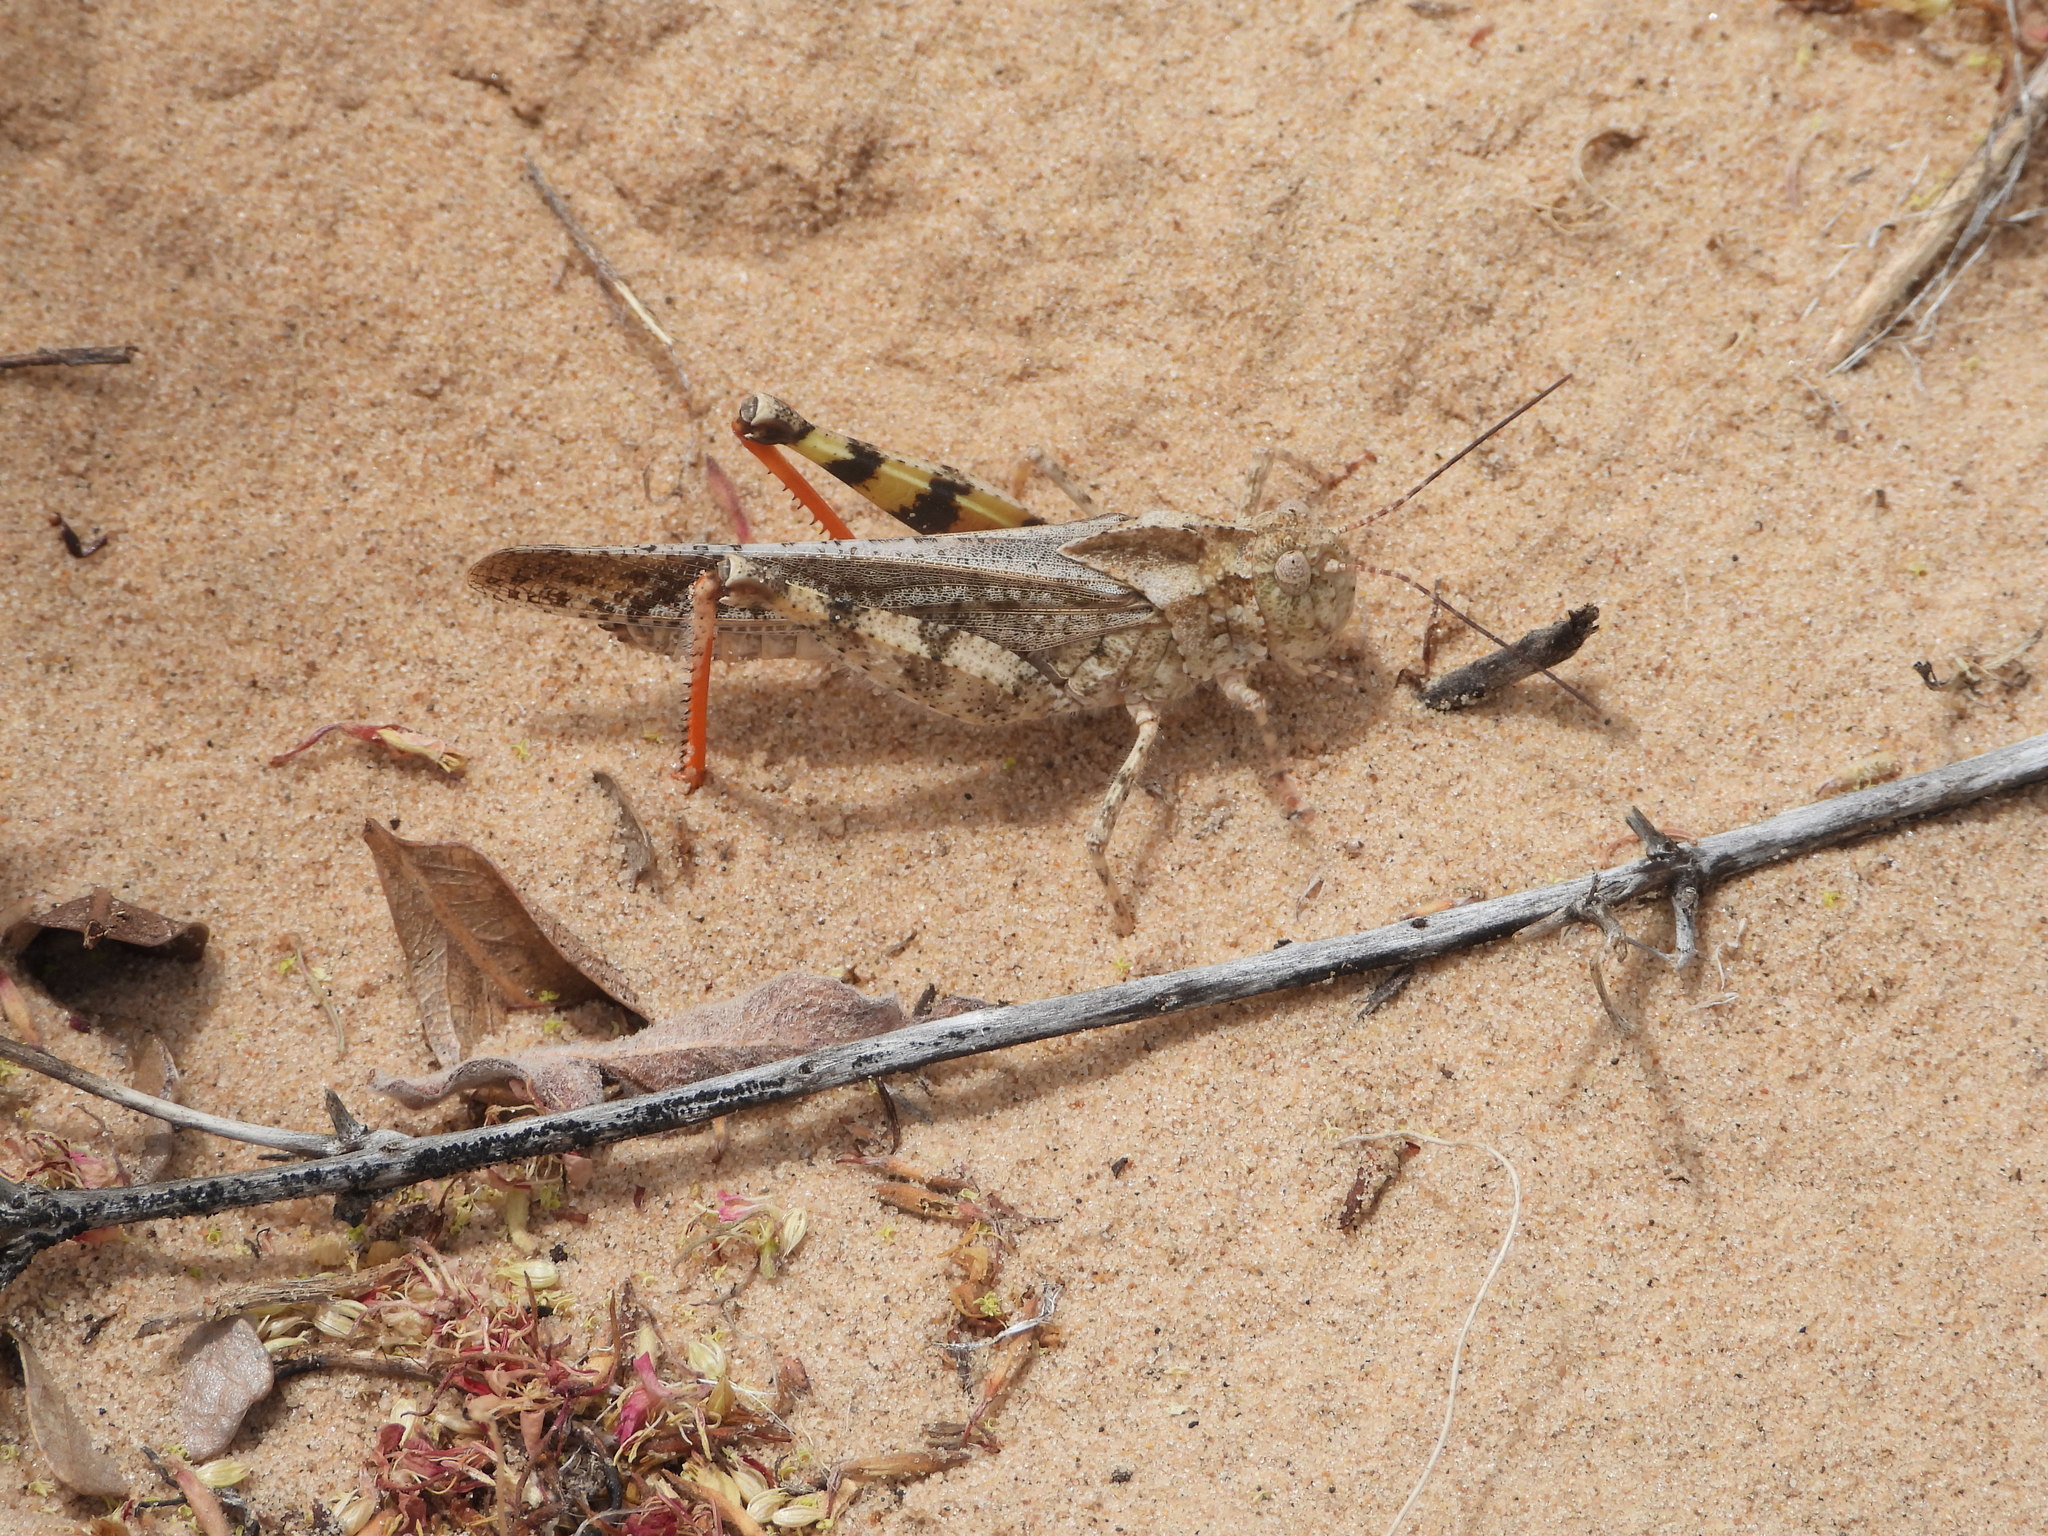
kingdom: Animalia
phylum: Arthropoda
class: Insecta
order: Orthoptera
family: Acrididae
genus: Spharagemon
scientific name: Spharagemon cristatum
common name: Ridgeback sand grasshopper
